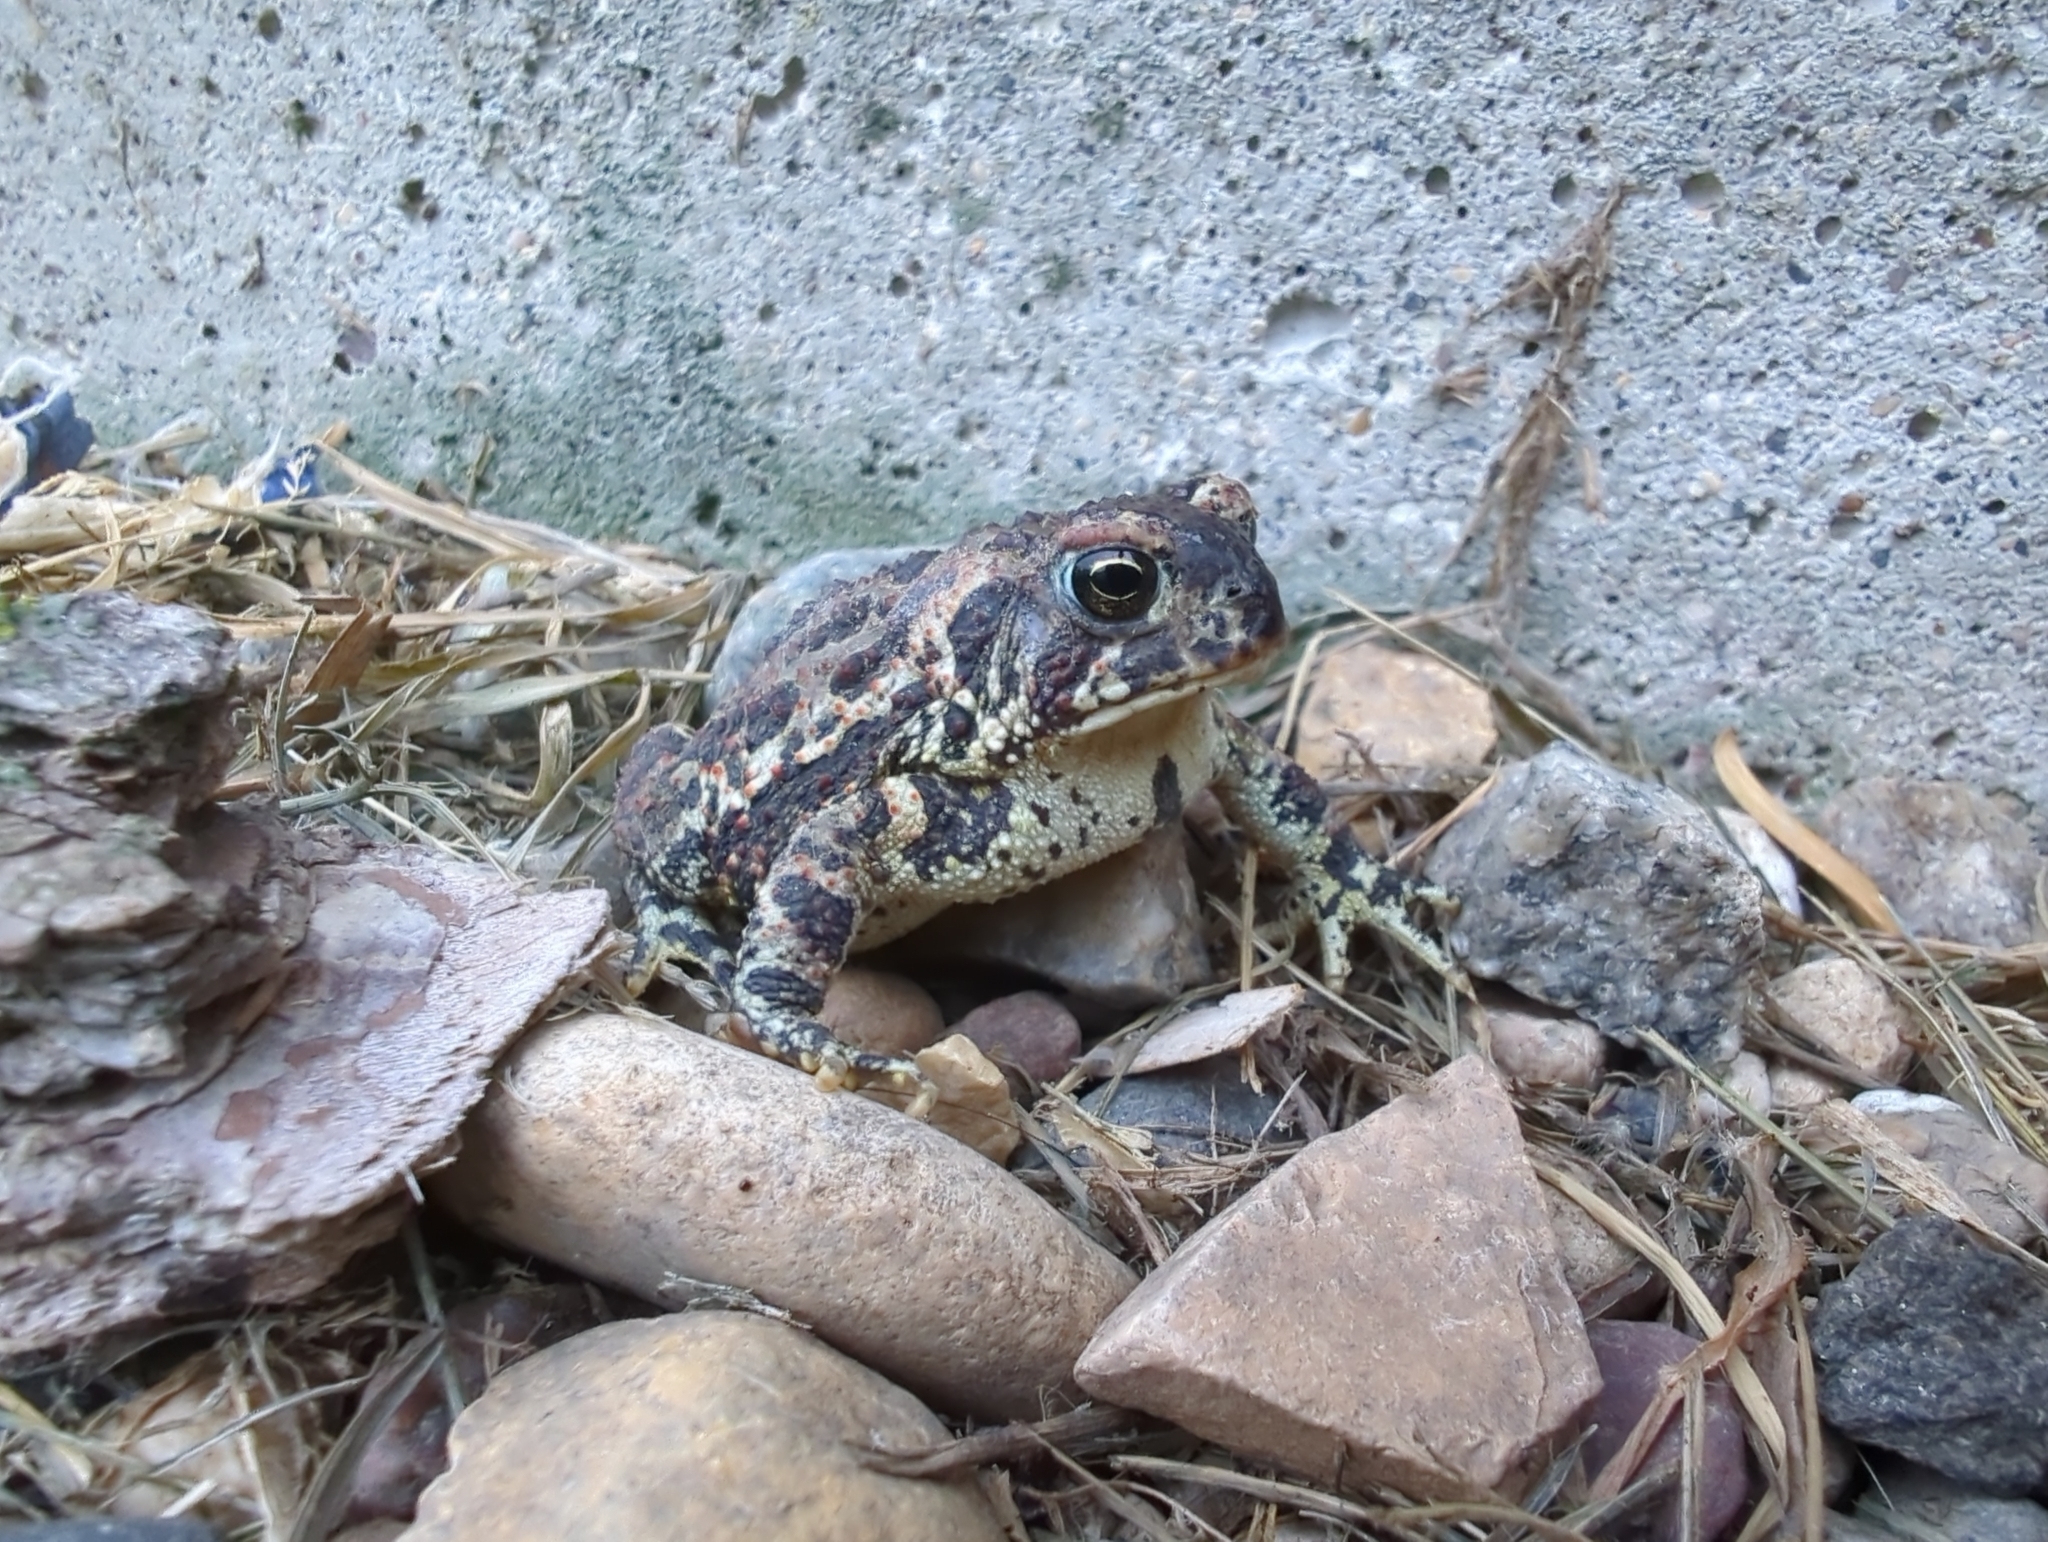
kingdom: Animalia
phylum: Chordata
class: Amphibia
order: Anura
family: Bufonidae
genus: Anaxyrus
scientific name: Anaxyrus americanus
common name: American toad
